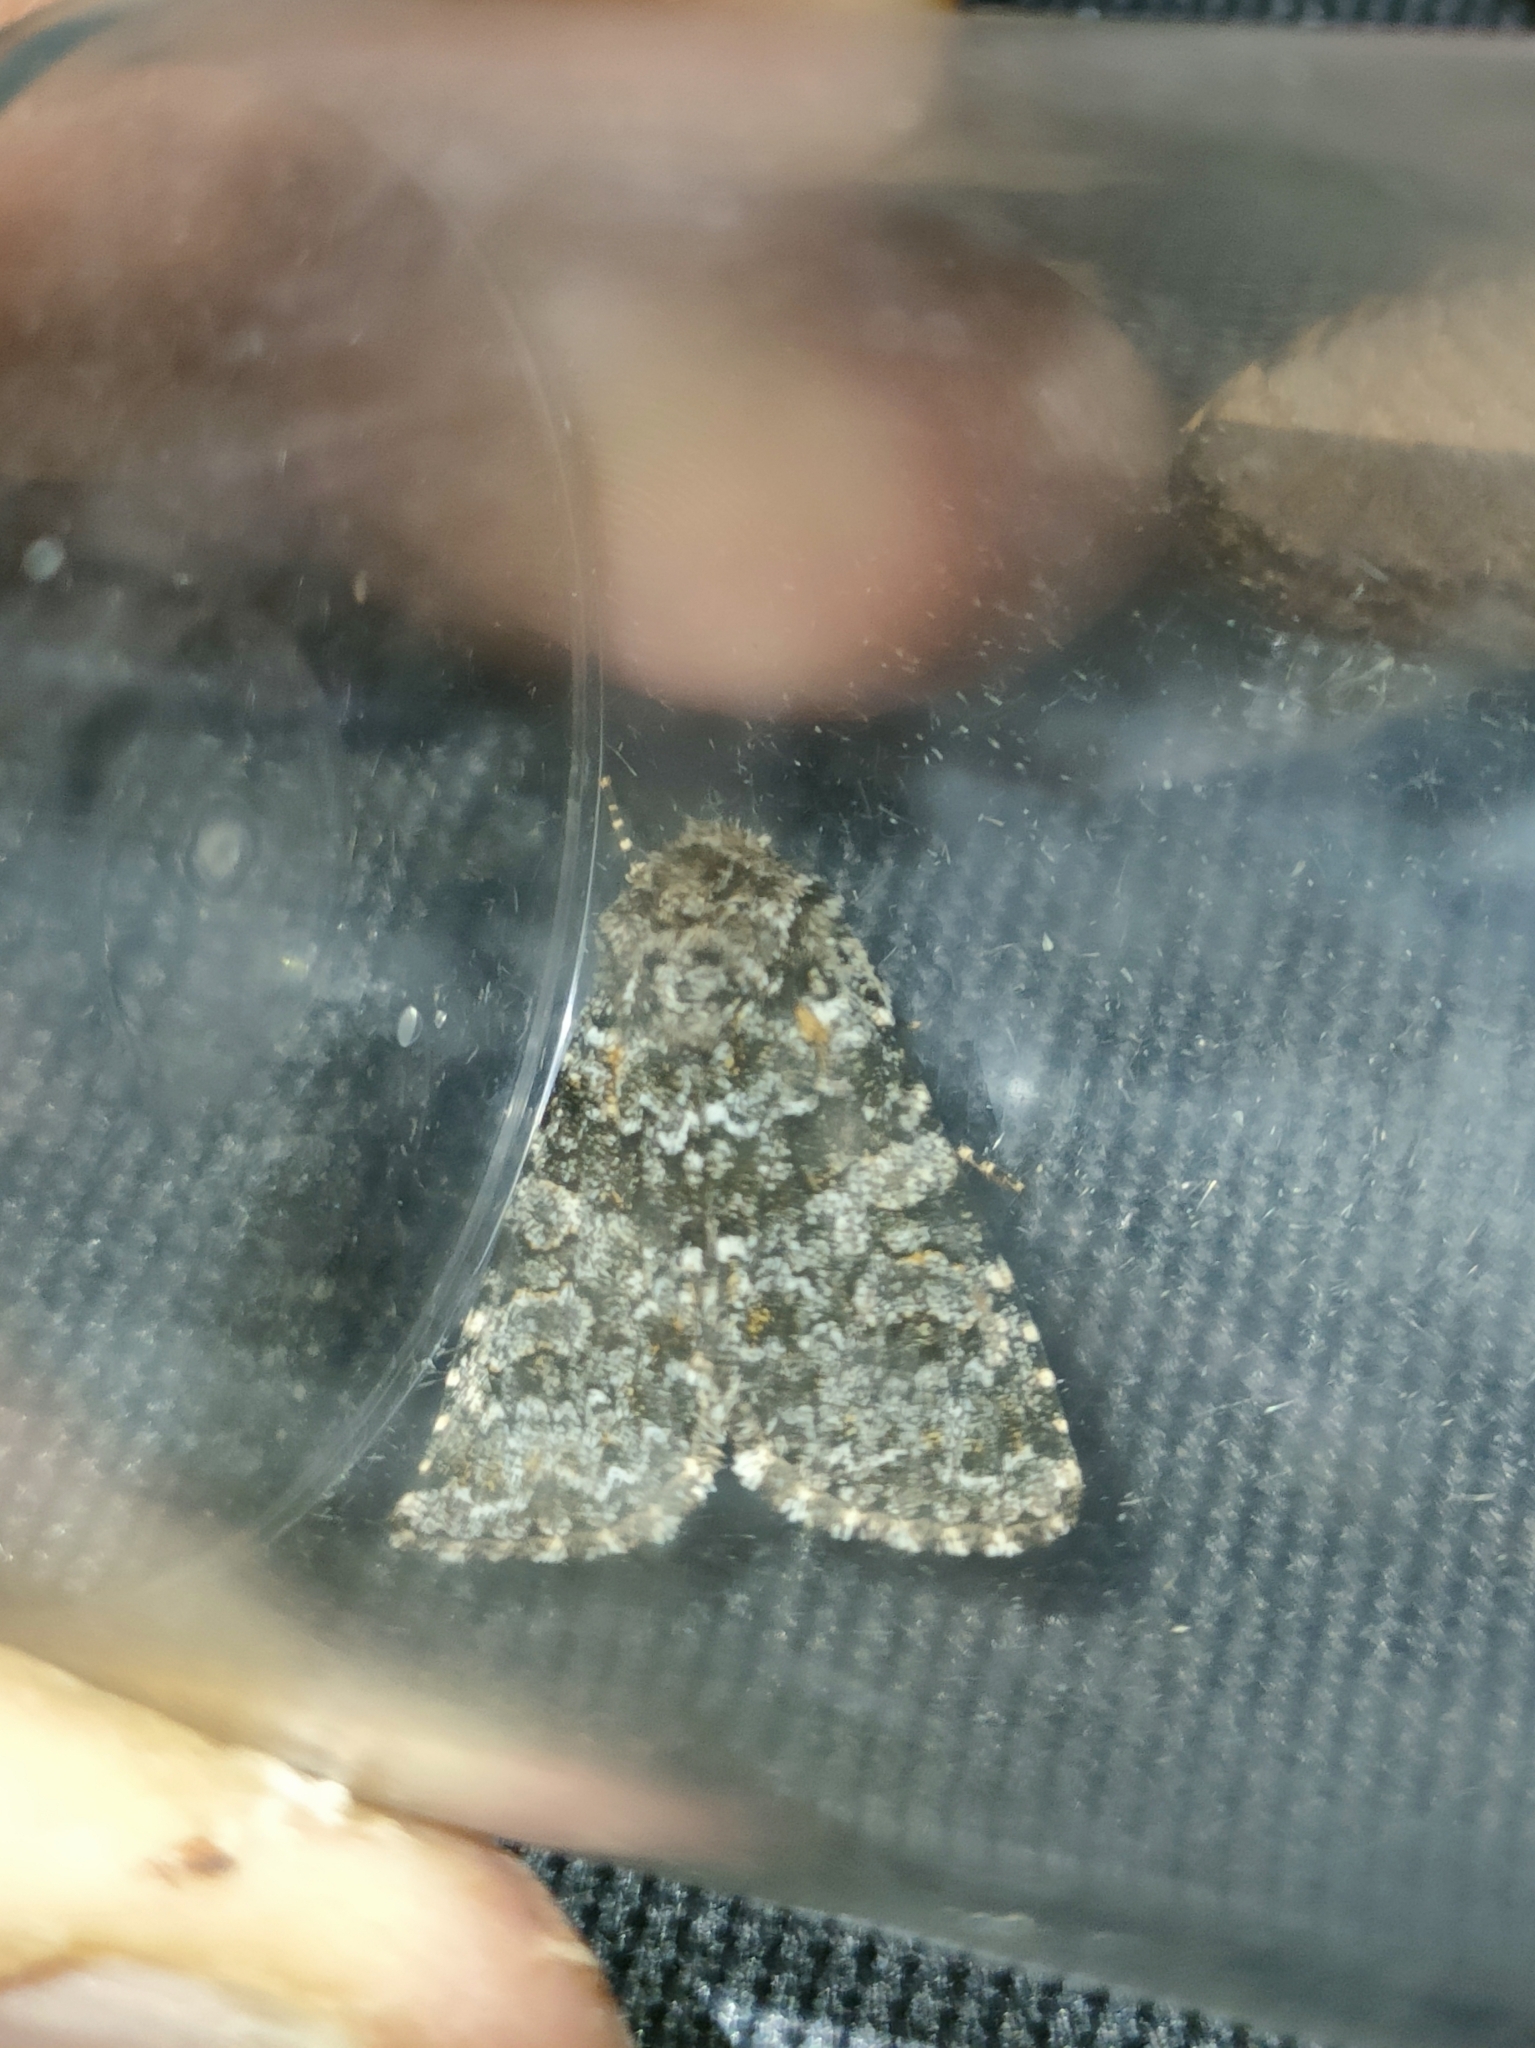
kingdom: Animalia
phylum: Arthropoda
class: Insecta
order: Lepidoptera
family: Noctuidae
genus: Hadena
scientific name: Hadena filograna
